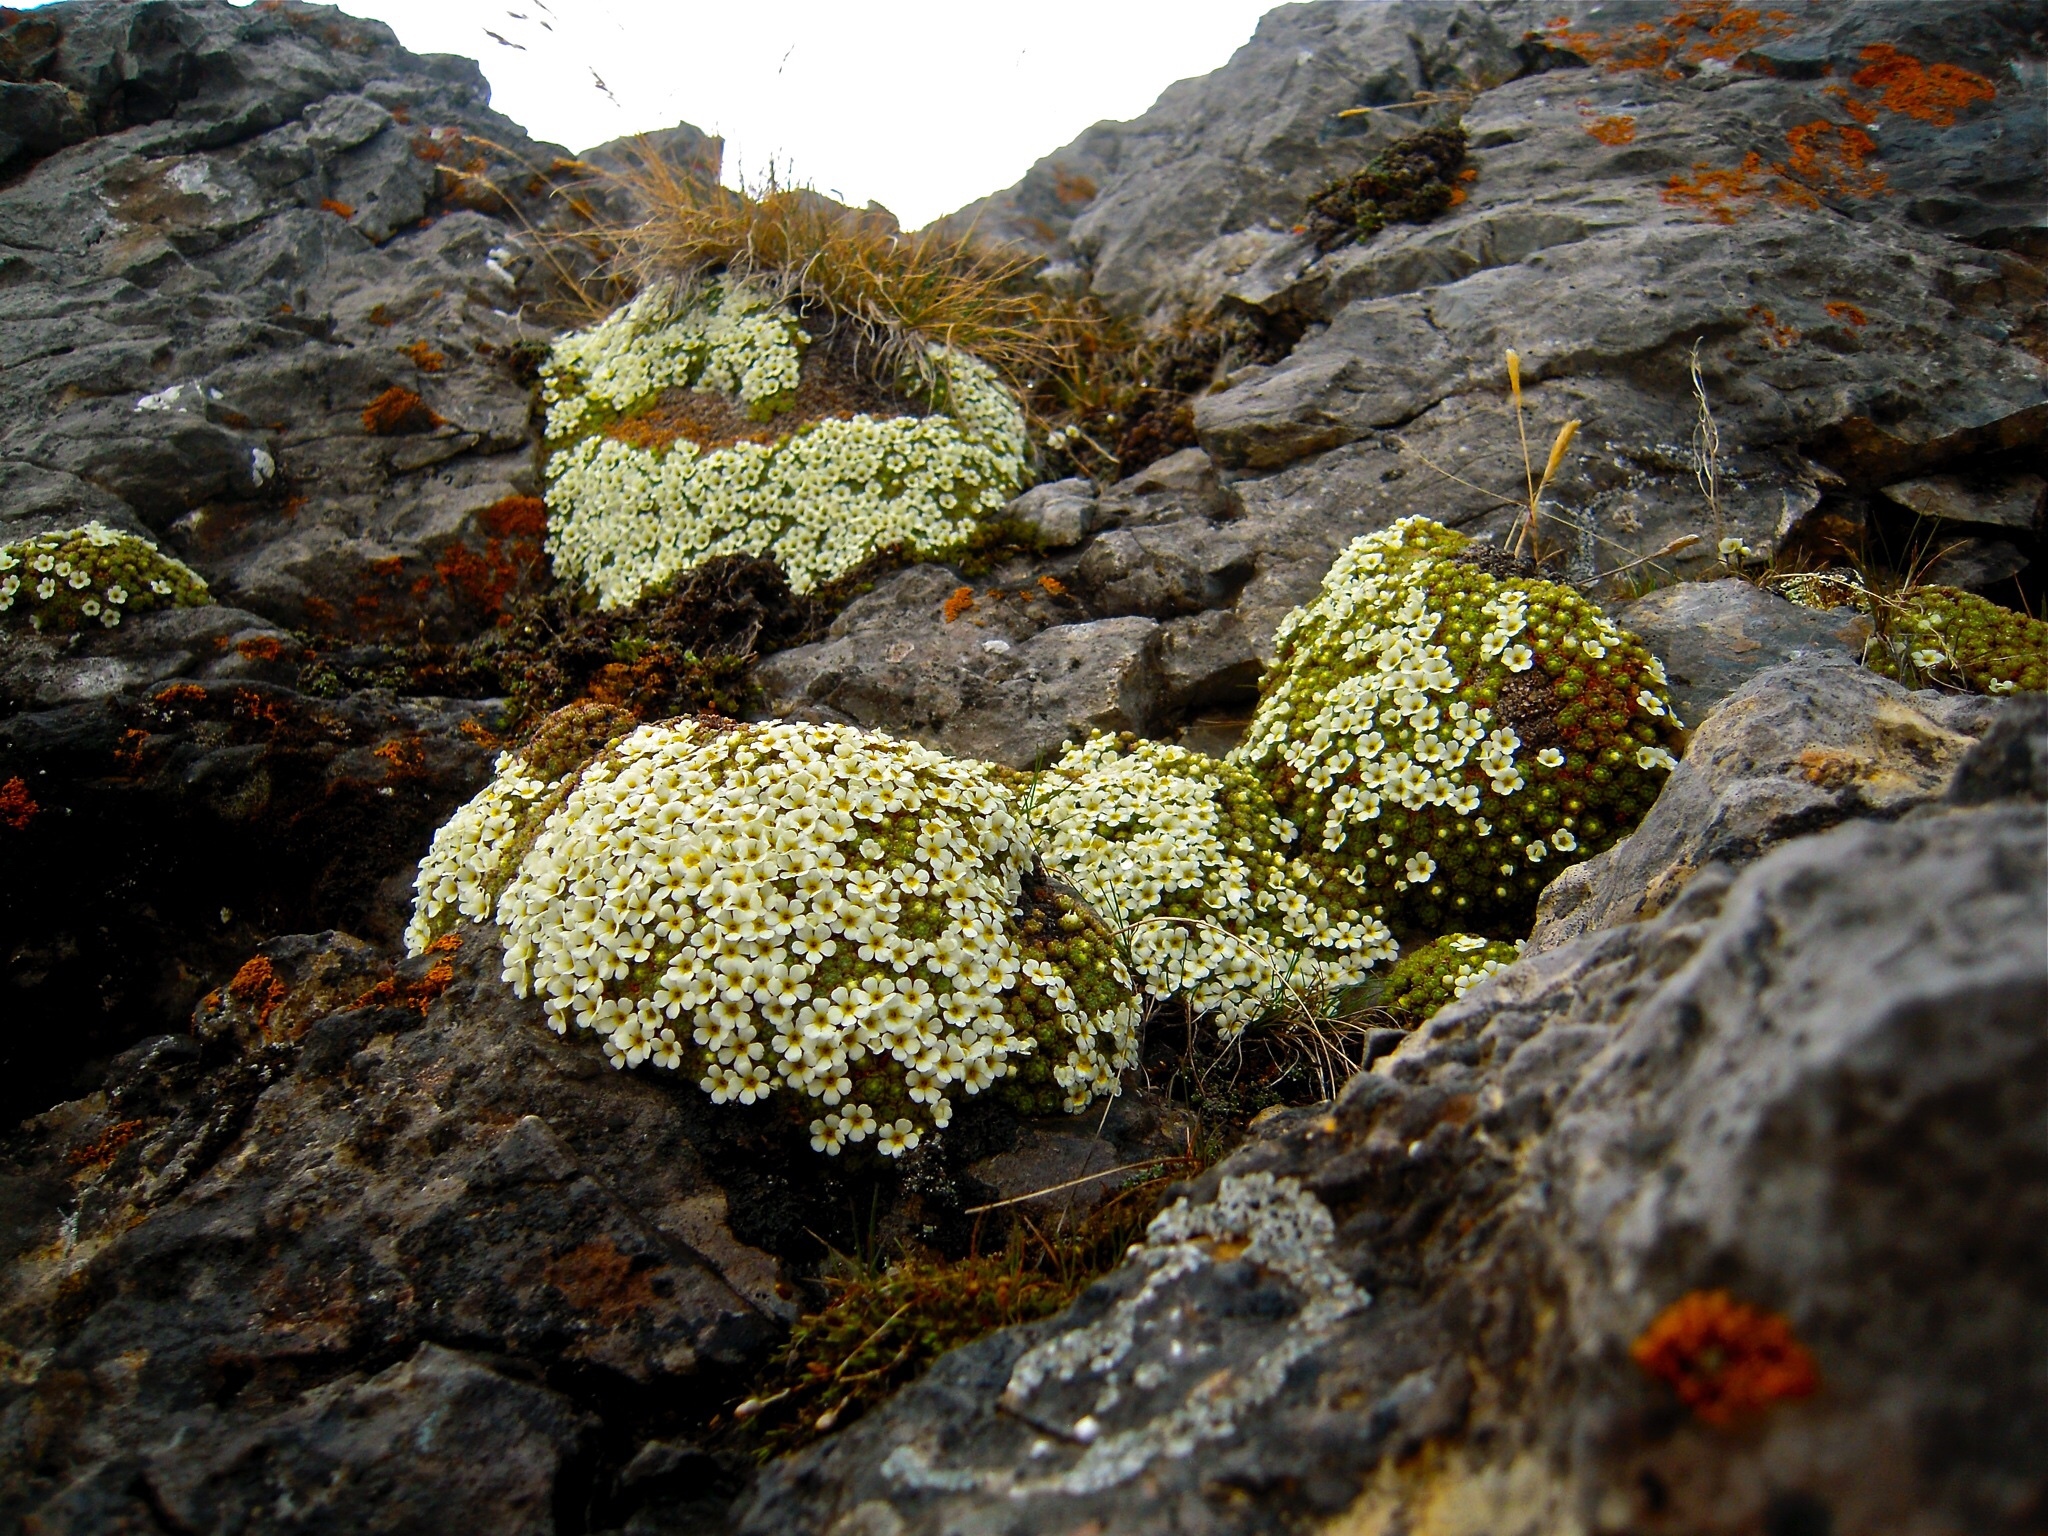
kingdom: Plantae
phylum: Tracheophyta
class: Magnoliopsida
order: Ericales
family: Primulaceae
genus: Androsace
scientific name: Androsace helvetica
